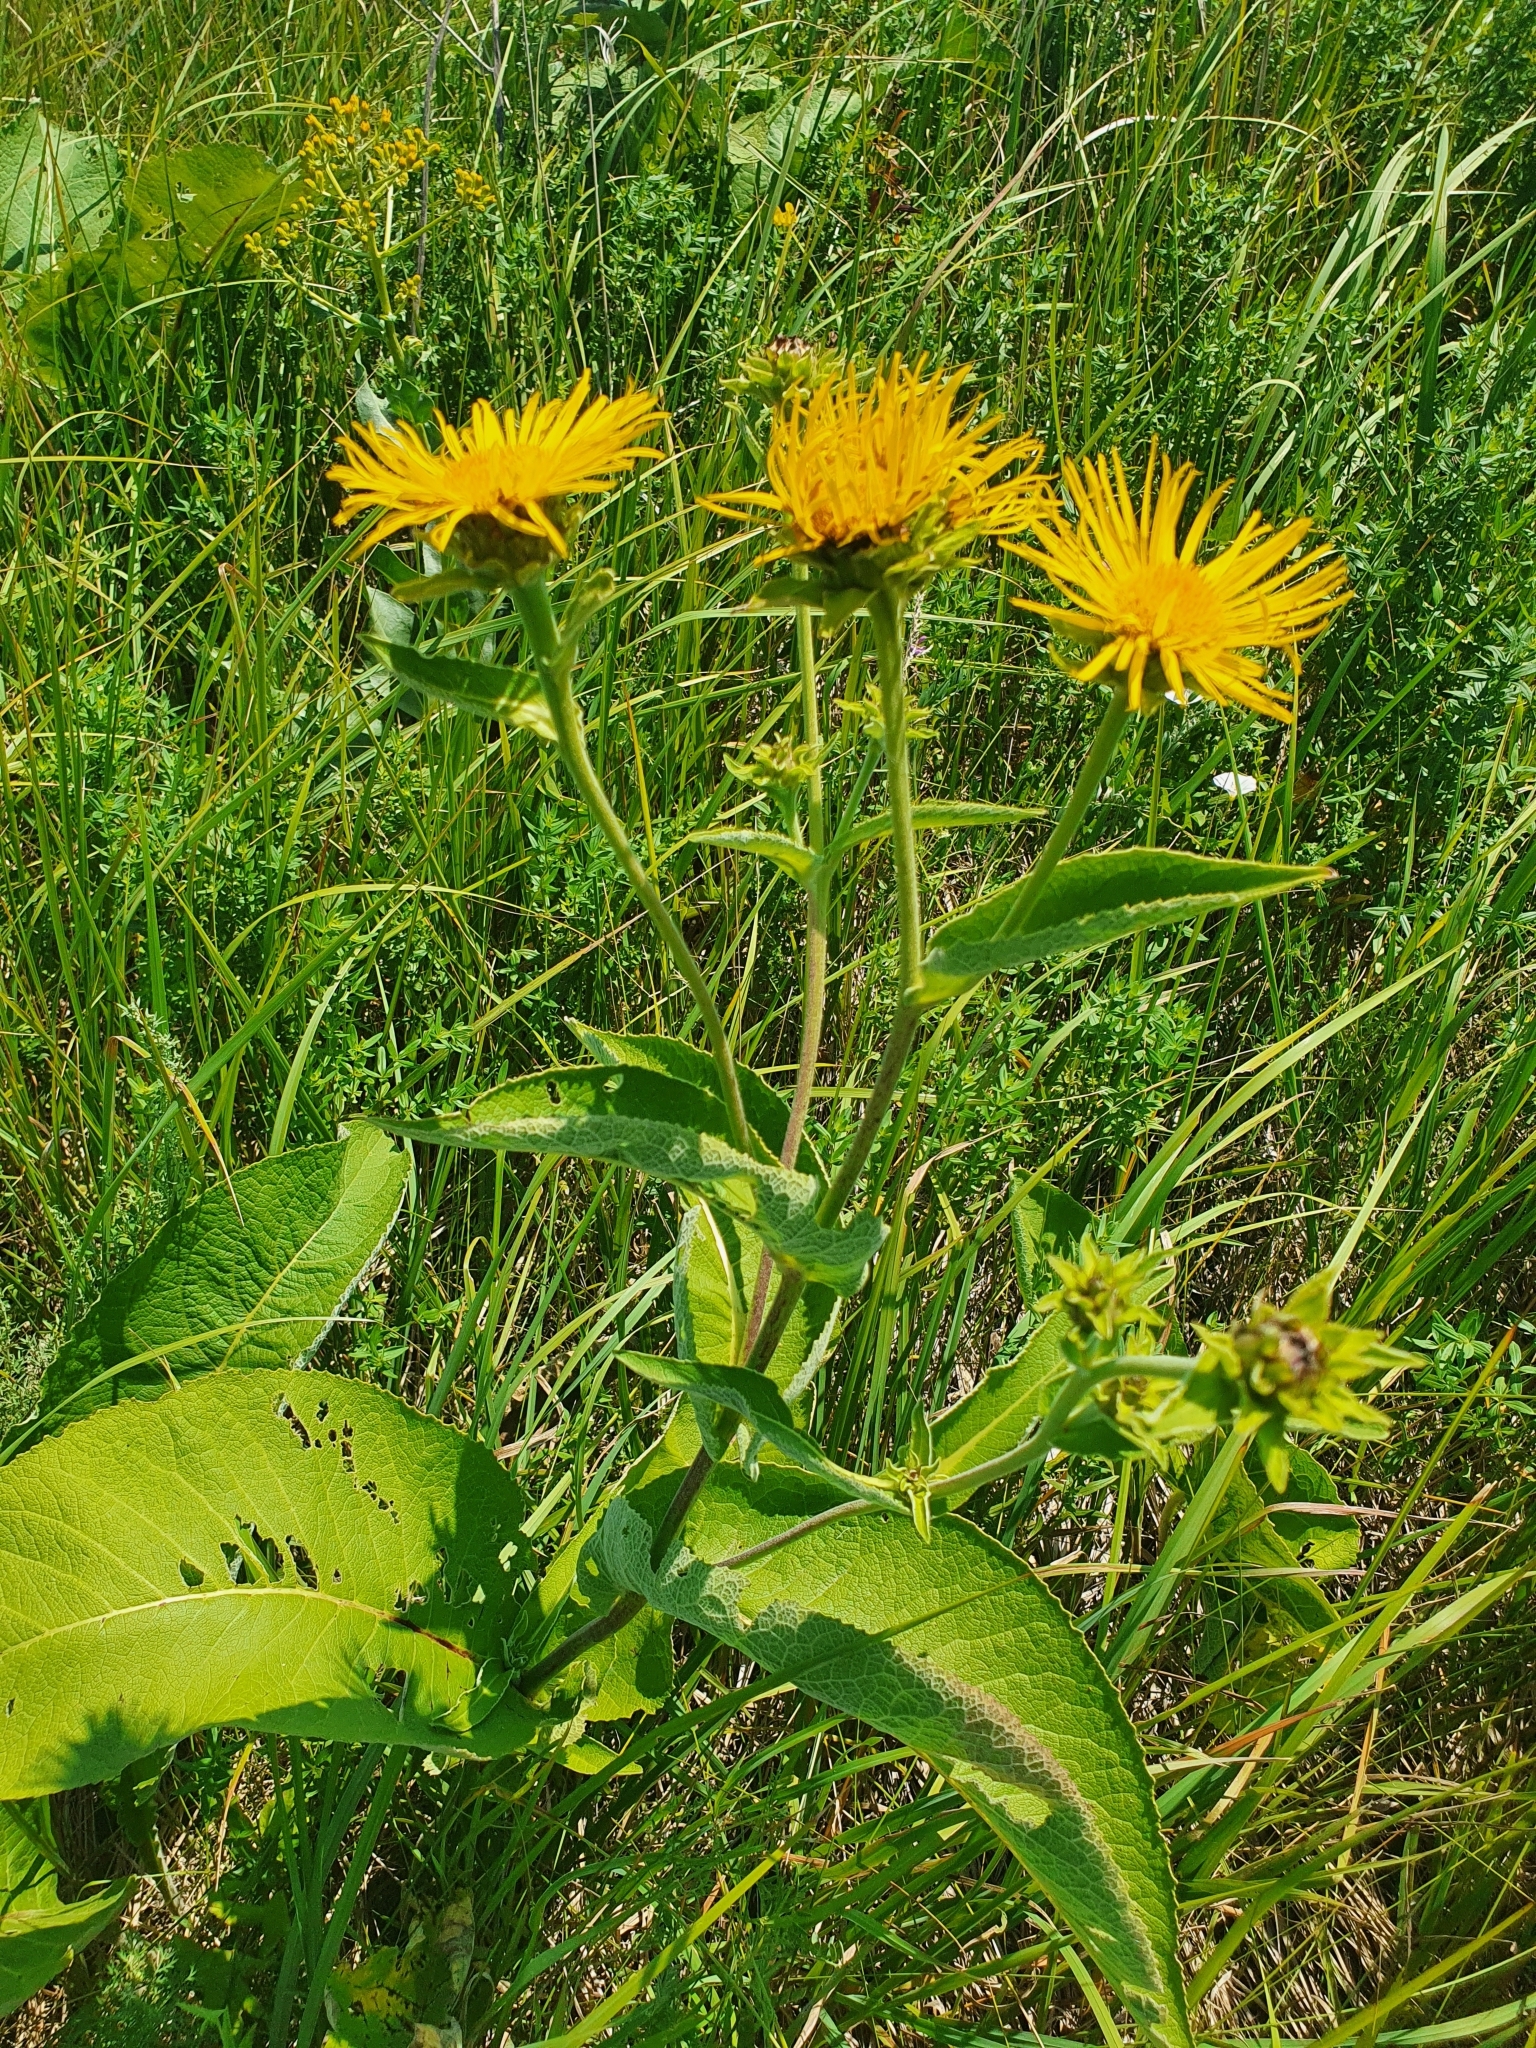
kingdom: Plantae
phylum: Tracheophyta
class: Magnoliopsida
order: Asterales
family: Asteraceae
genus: Inula
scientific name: Inula helenium
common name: Elecampane
